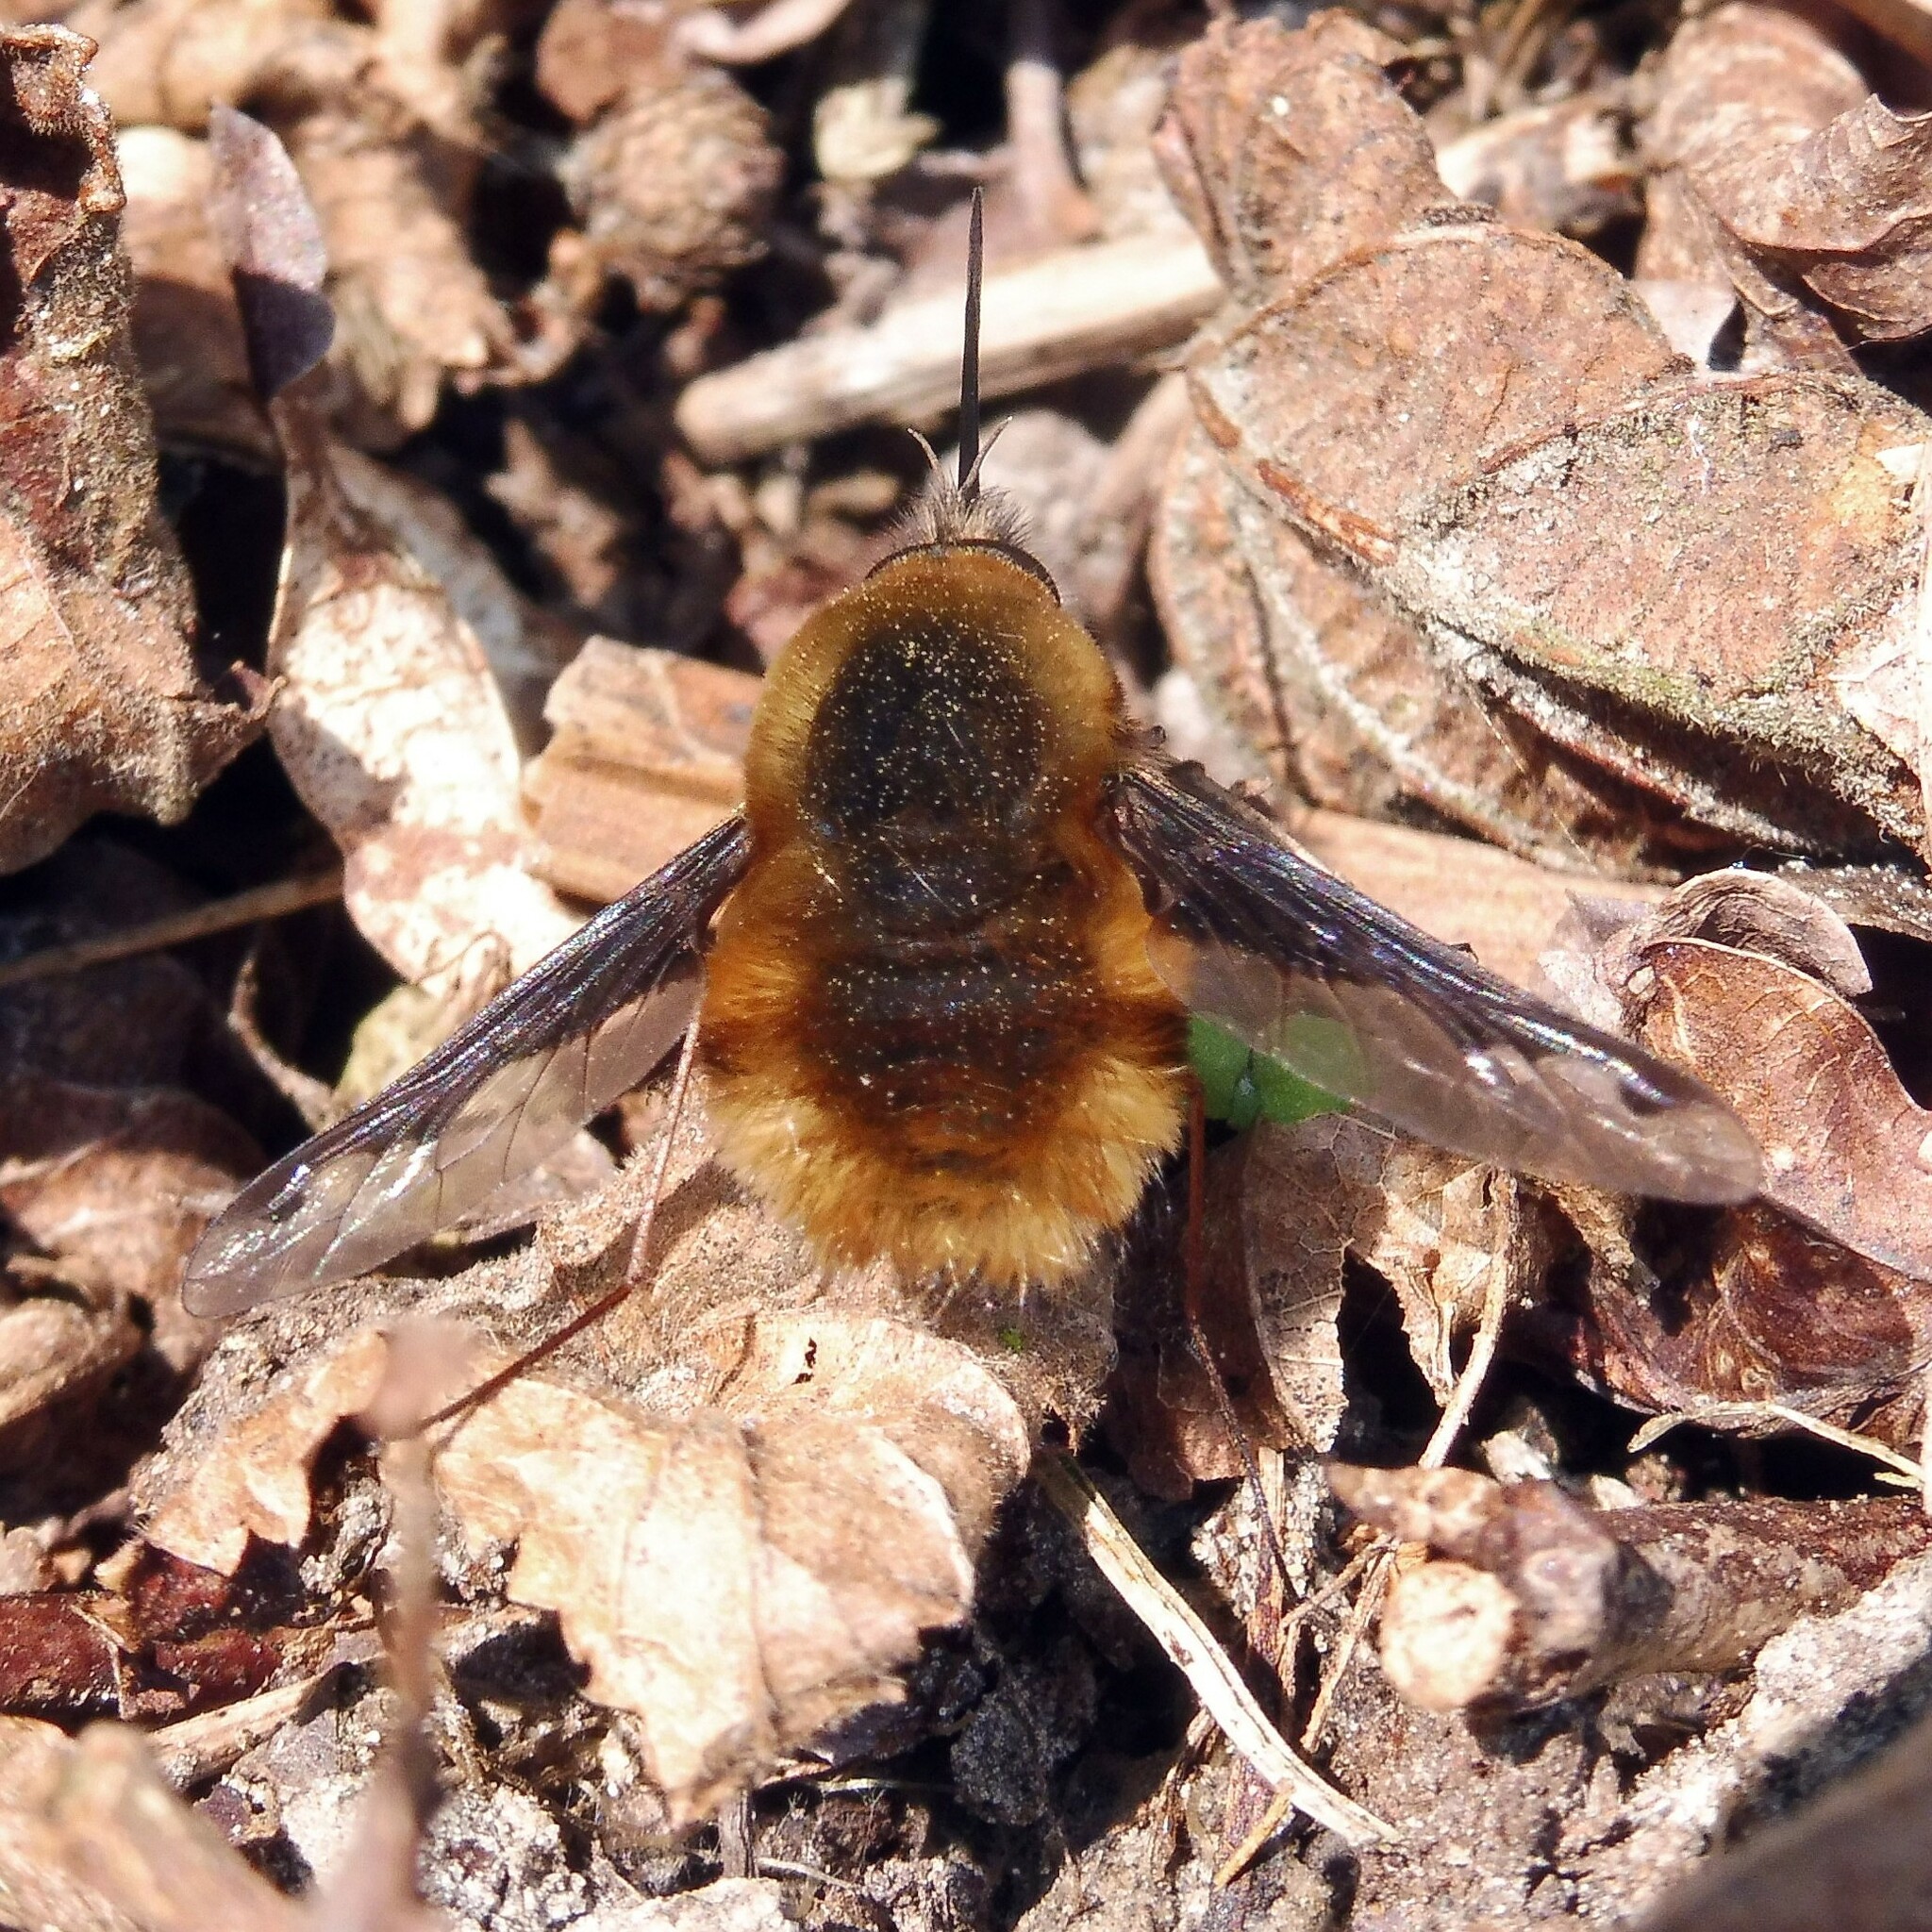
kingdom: Animalia
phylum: Arthropoda
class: Insecta
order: Diptera
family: Bombyliidae
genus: Bombylius
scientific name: Bombylius major
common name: Bee fly
